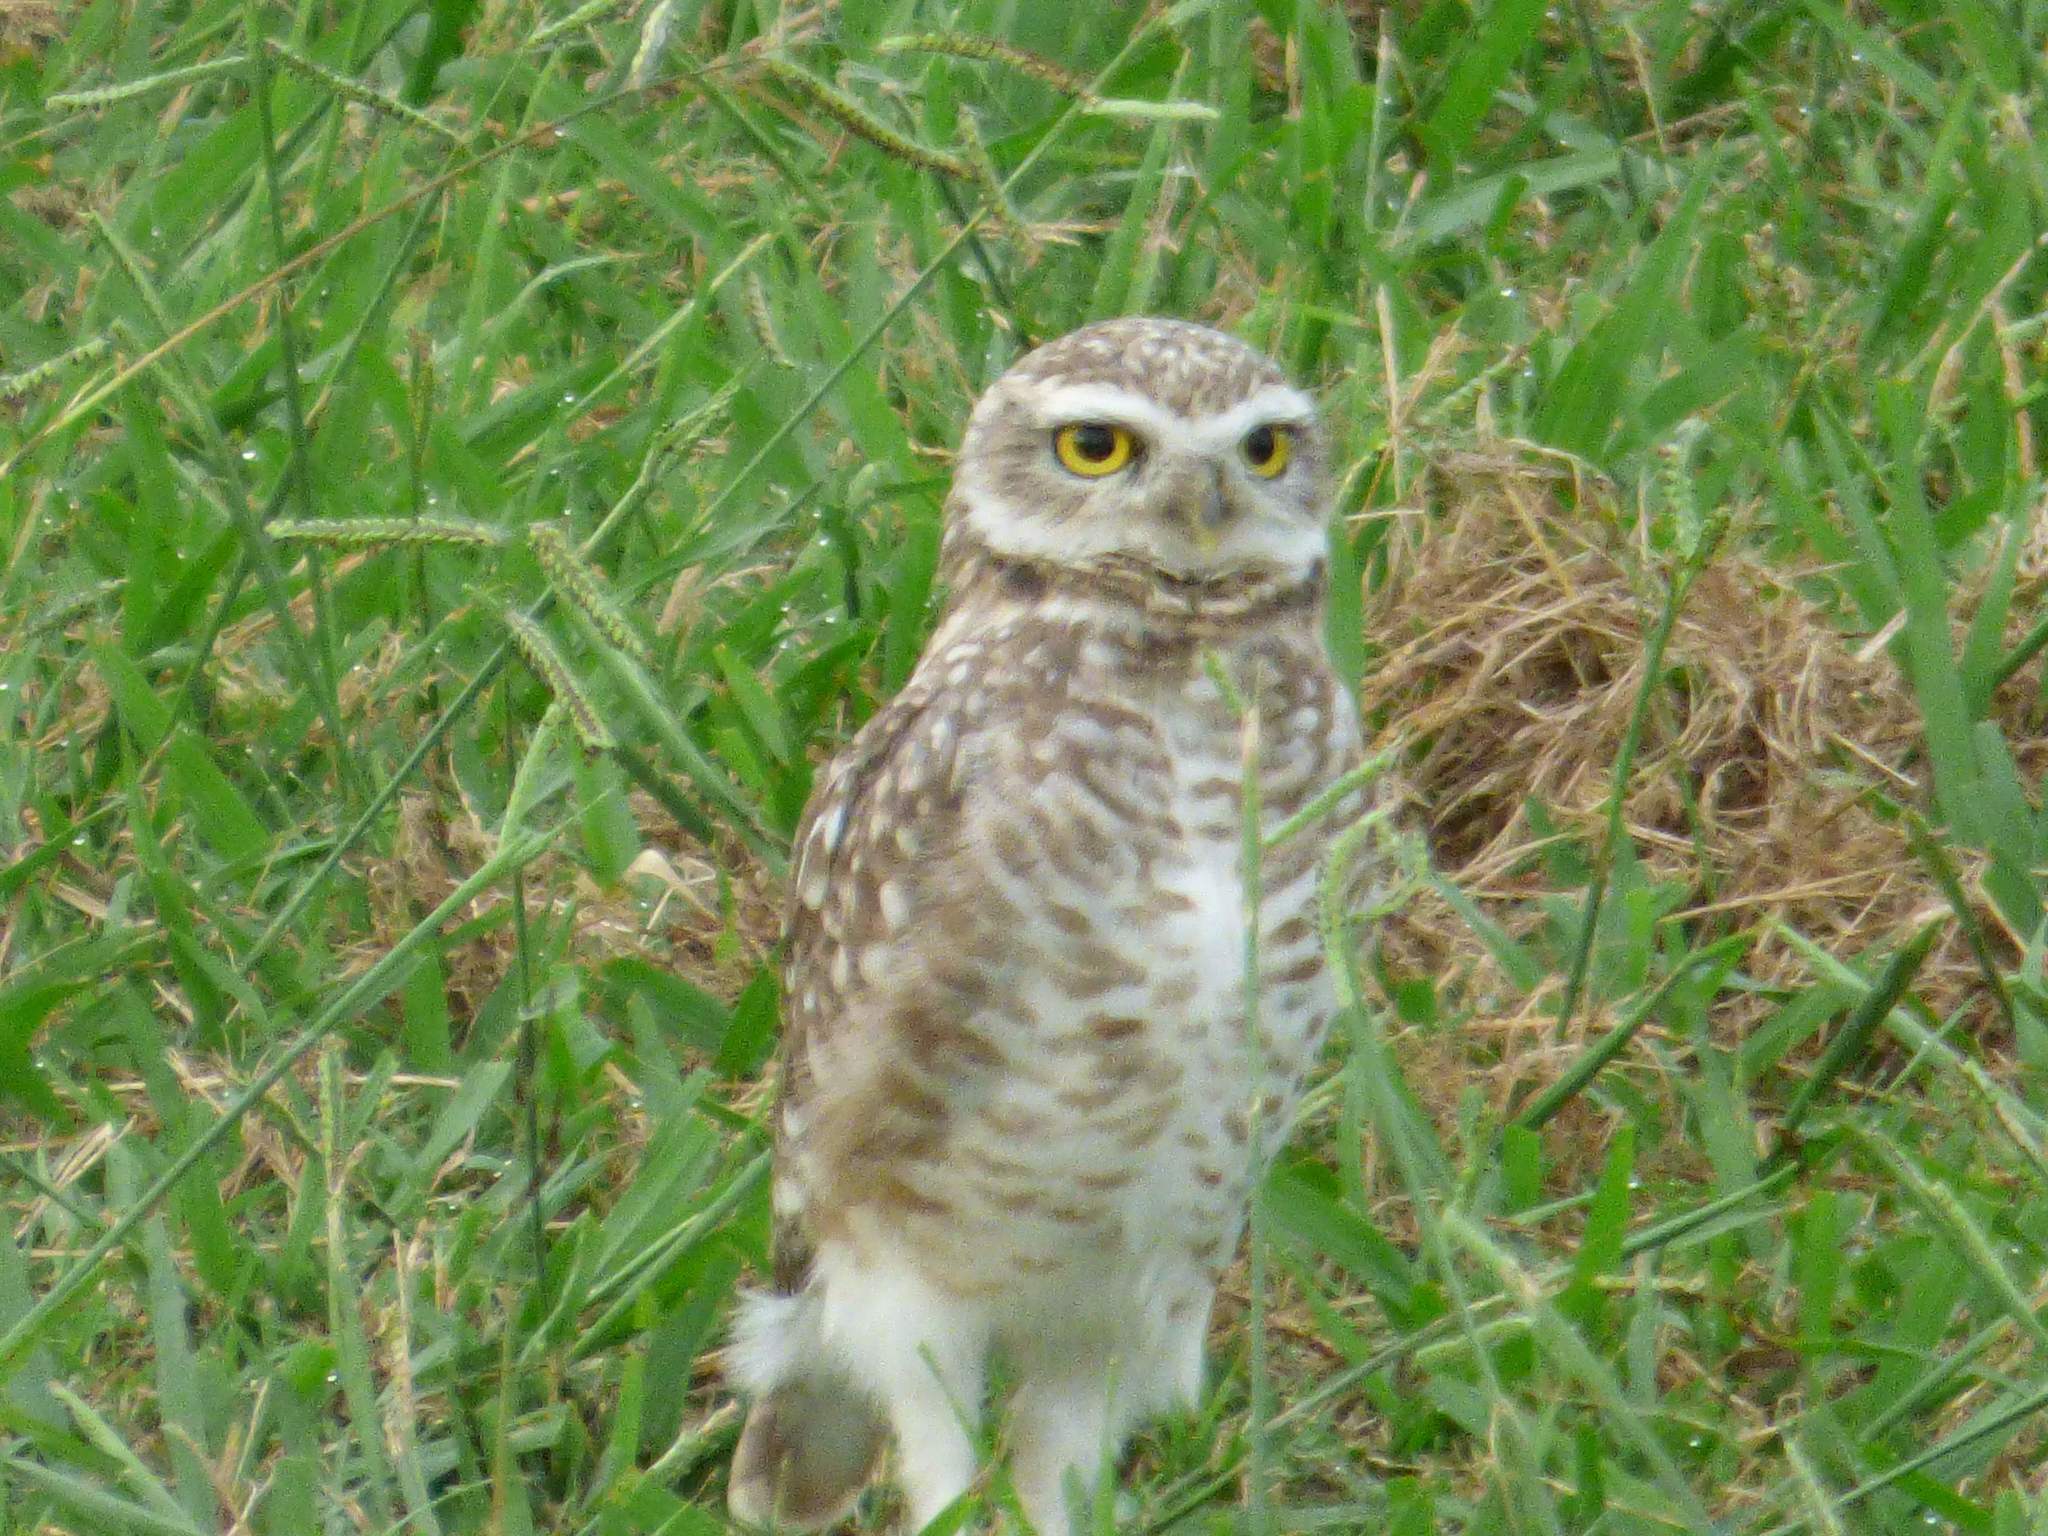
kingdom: Animalia
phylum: Chordata
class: Aves
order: Strigiformes
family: Strigidae
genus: Athene
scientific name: Athene cunicularia
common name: Burrowing owl
